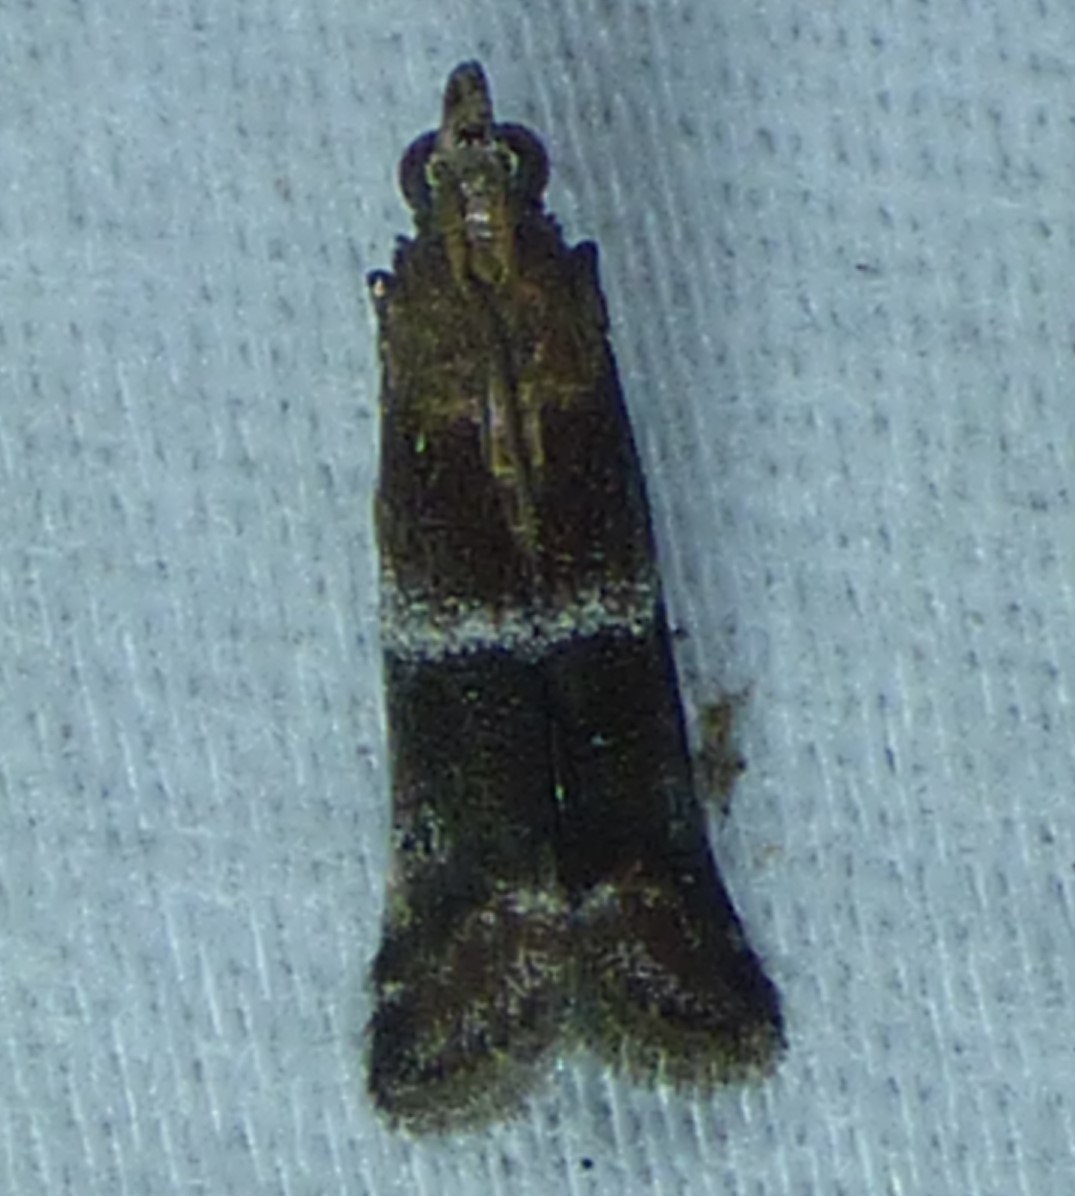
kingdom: Animalia
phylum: Arthropoda
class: Insecta
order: Lepidoptera
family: Pyralidae
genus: Moodna
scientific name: Moodna ostrinella
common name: Darker moodna moth
